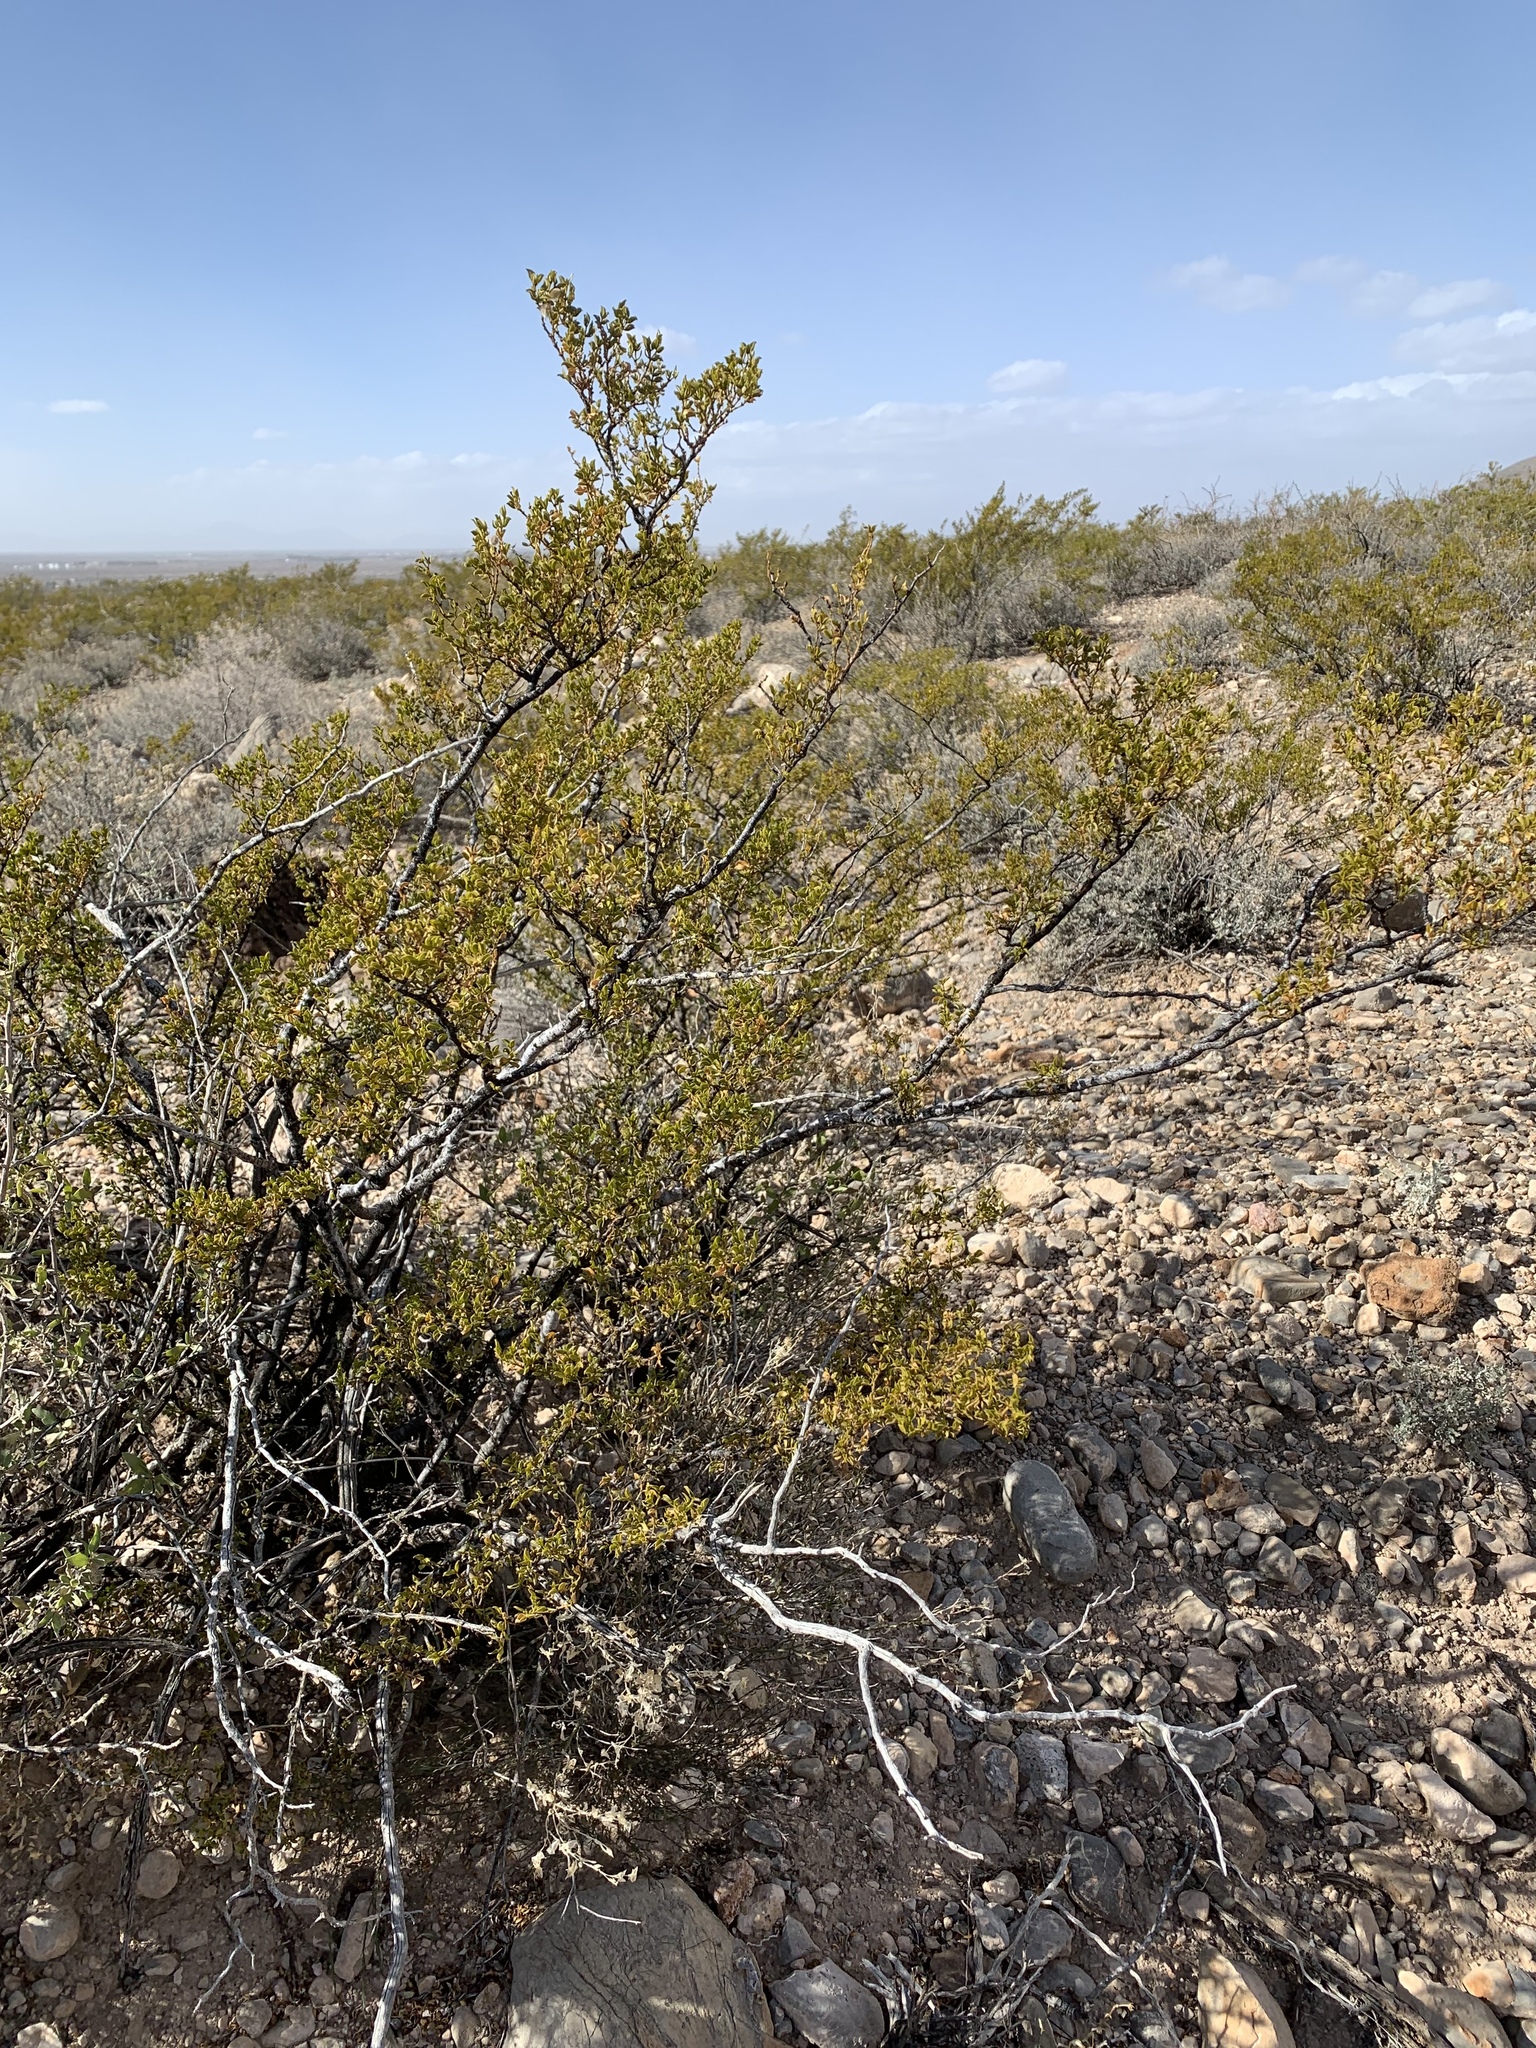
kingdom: Plantae
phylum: Tracheophyta
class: Magnoliopsida
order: Zygophyllales
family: Zygophyllaceae
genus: Larrea
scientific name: Larrea tridentata
